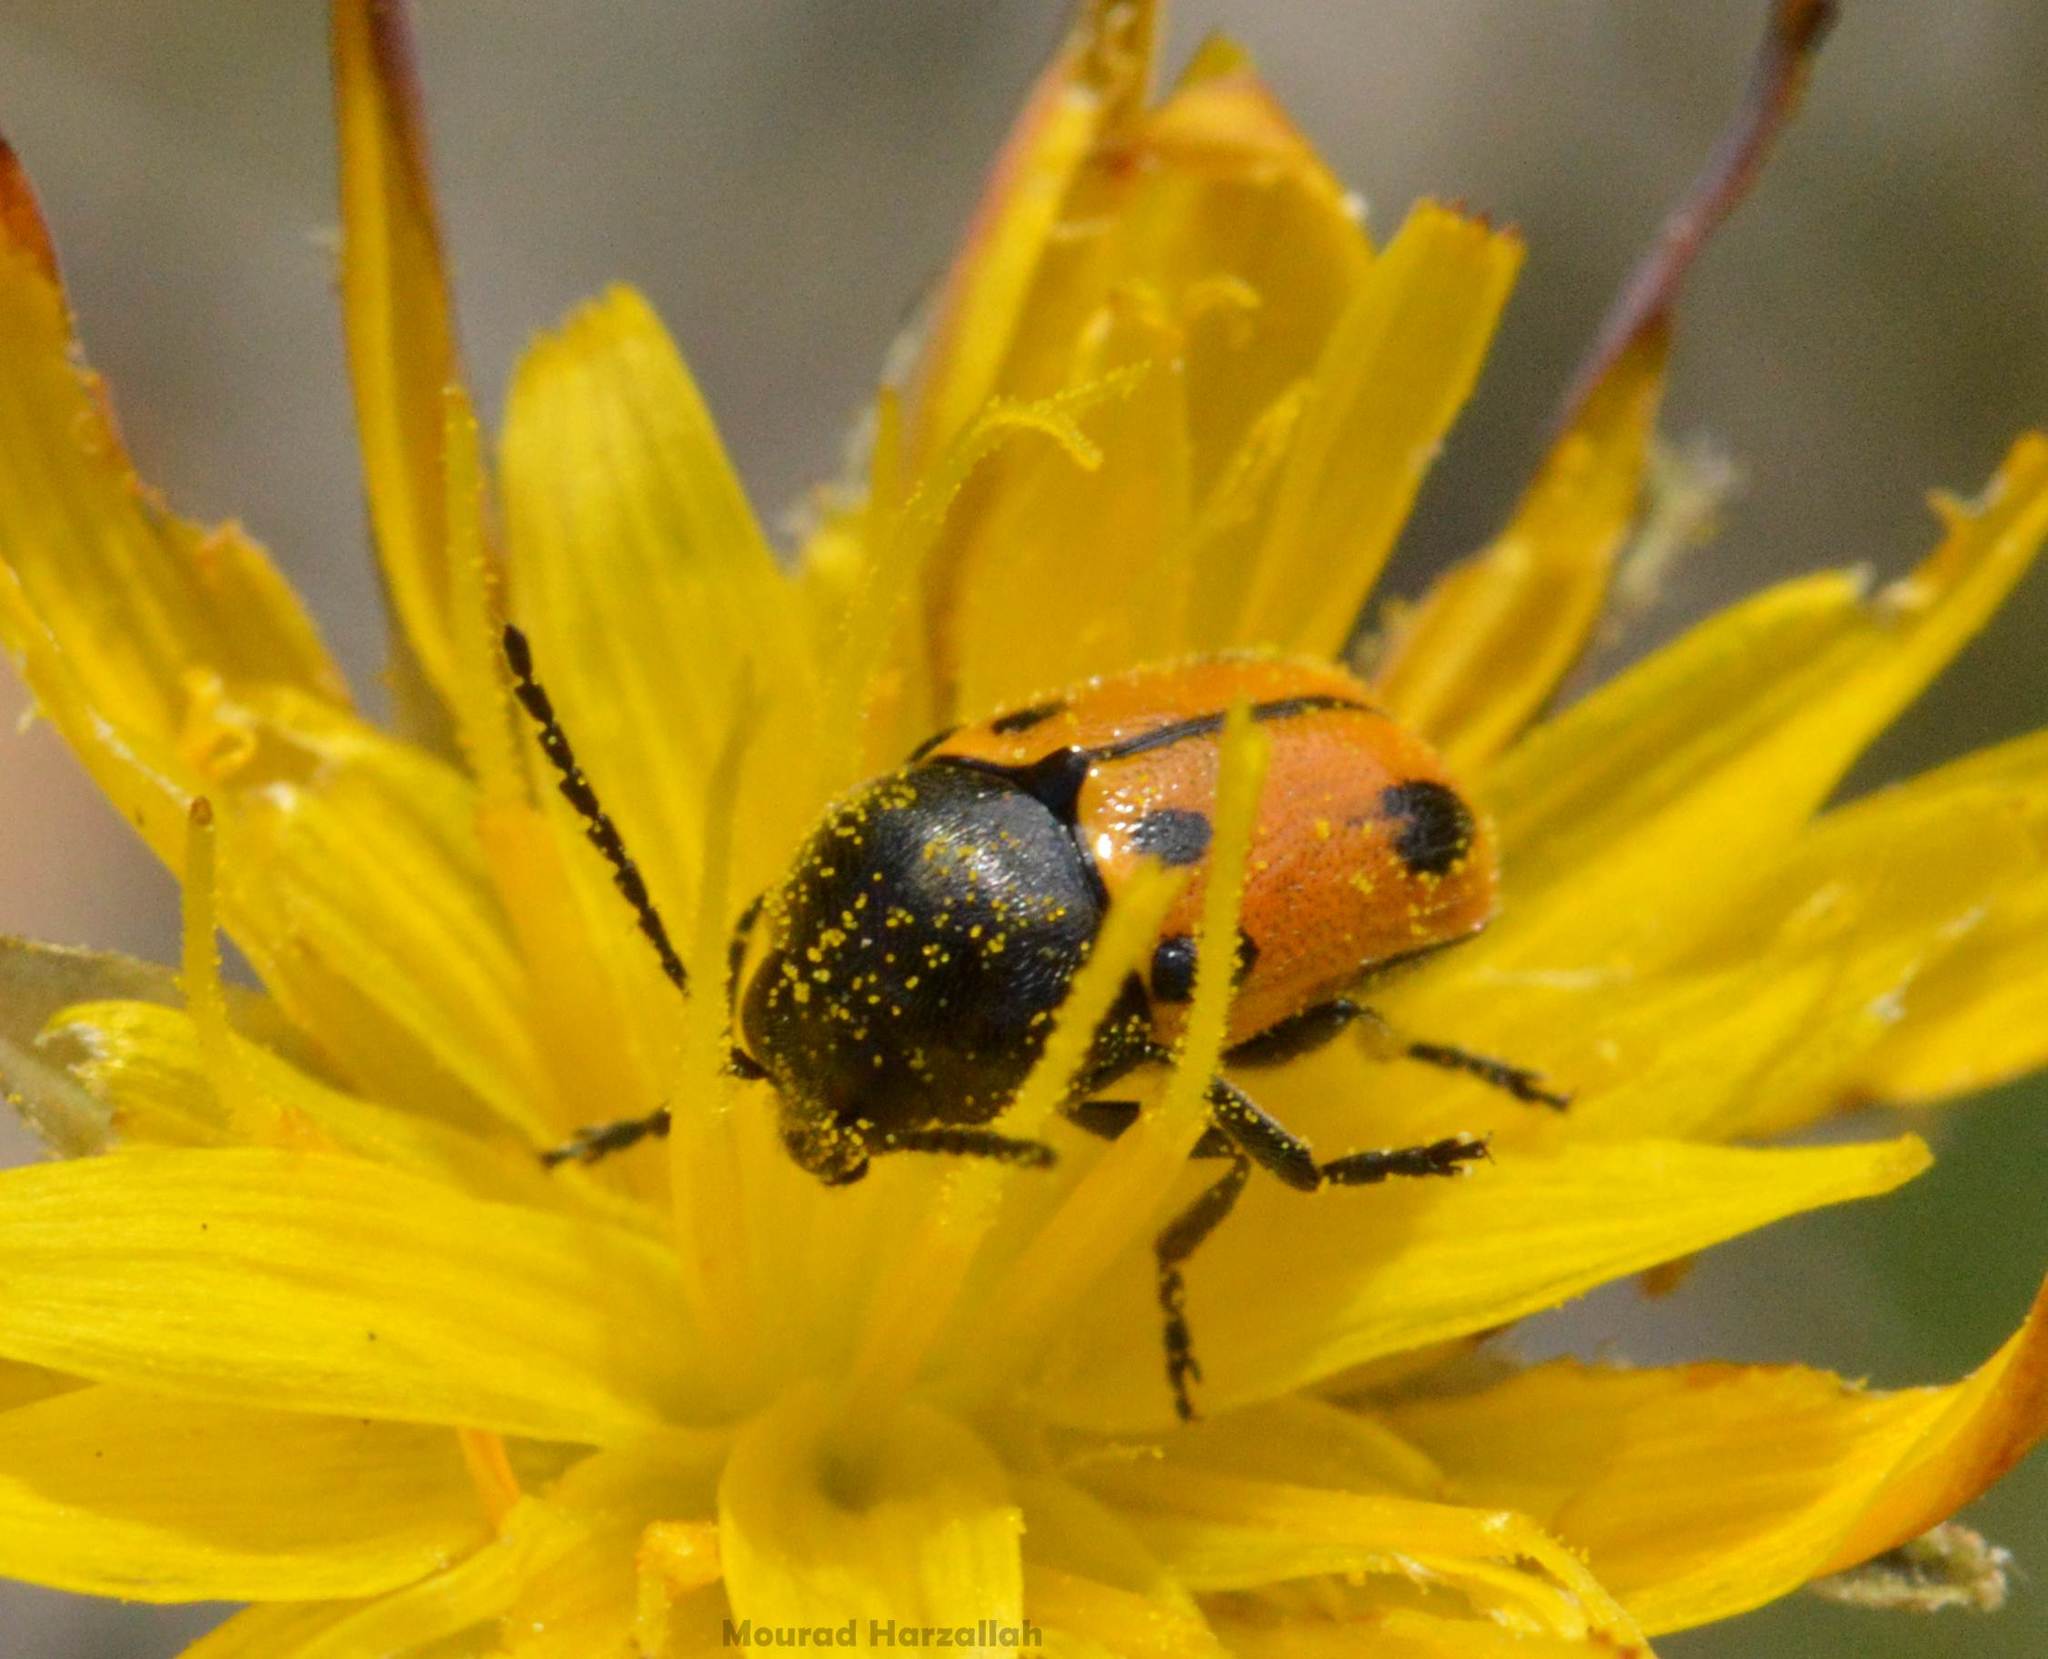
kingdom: Animalia
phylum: Arthropoda
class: Insecta
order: Coleoptera
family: Chrysomelidae
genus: Cryptocephalus
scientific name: Cryptocephalus rugicollis
